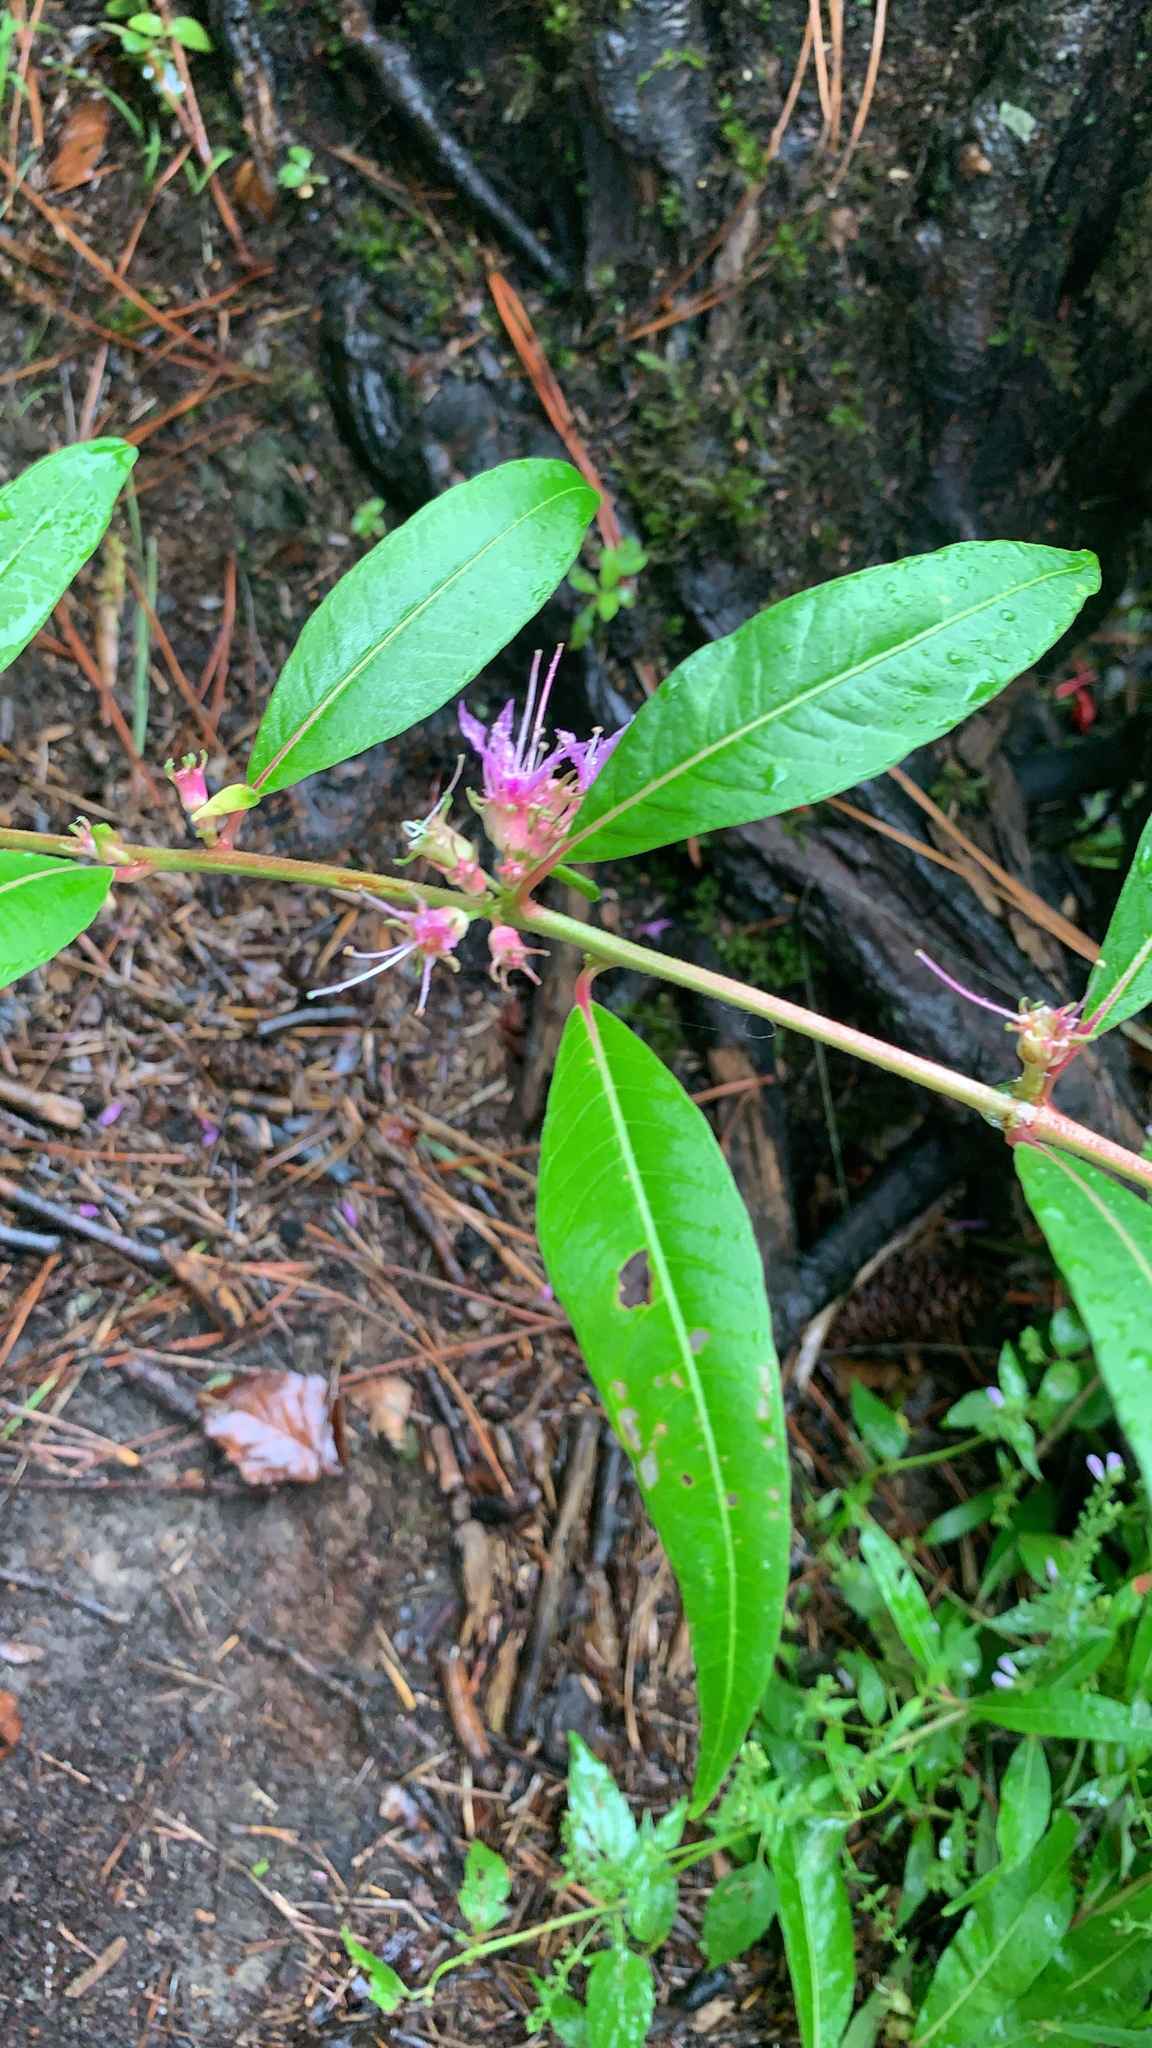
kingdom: Plantae
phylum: Tracheophyta
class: Magnoliopsida
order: Myrtales
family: Lythraceae
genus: Decodon
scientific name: Decodon verticillatus
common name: Hairy swamp loosestrife
